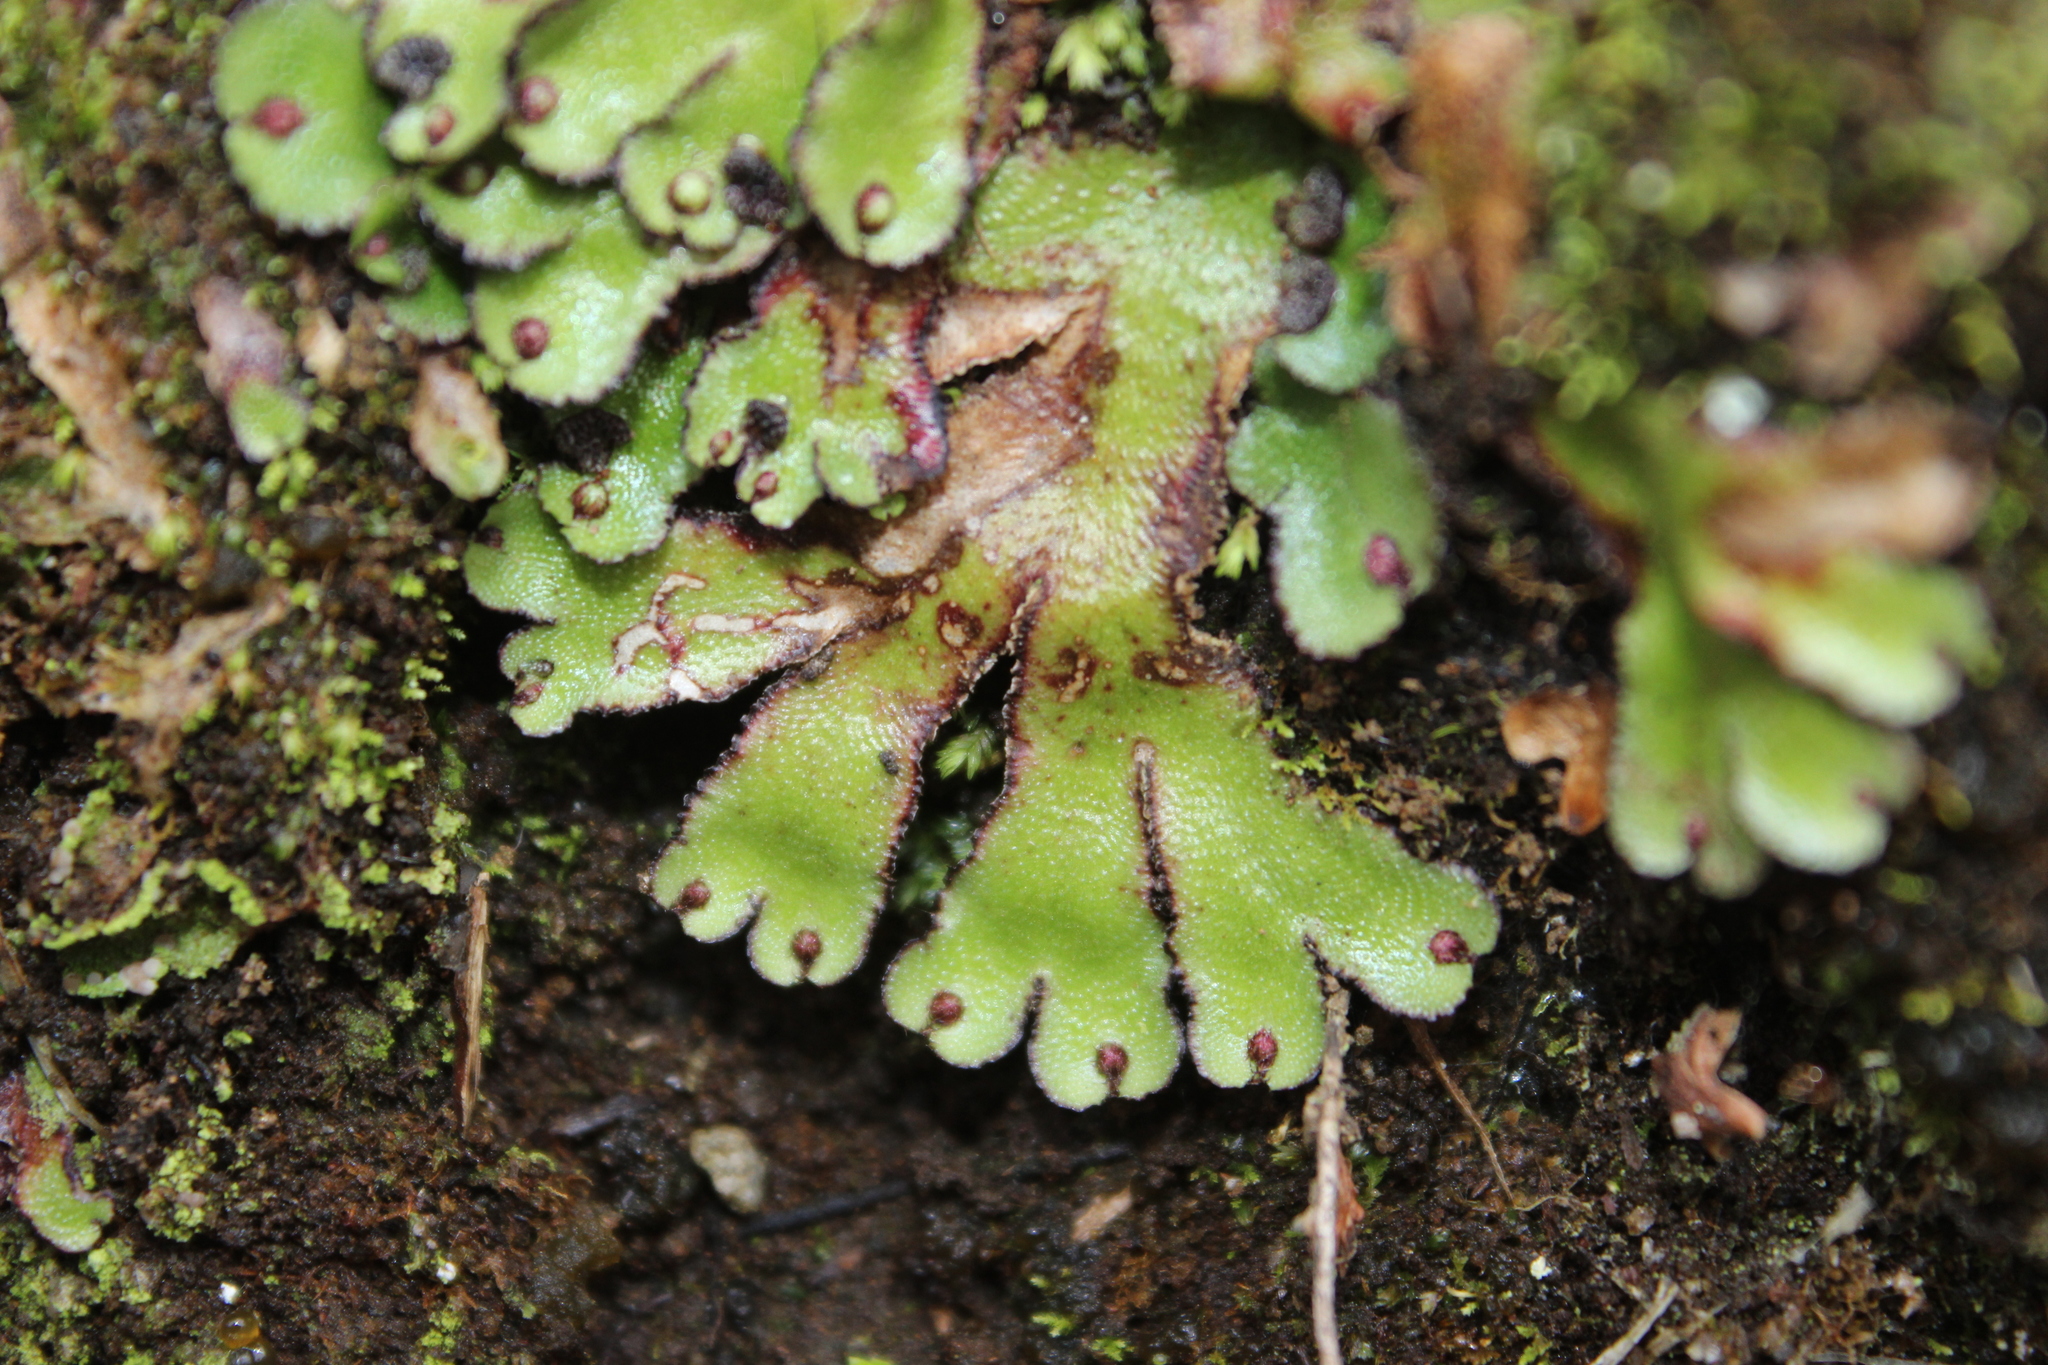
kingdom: Plantae
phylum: Marchantiophyta
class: Marchantiopsida
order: Marchantiales
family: Aytoniaceae
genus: Reboulia
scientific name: Reboulia hemisphaerica
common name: Purple-margined liverwort
